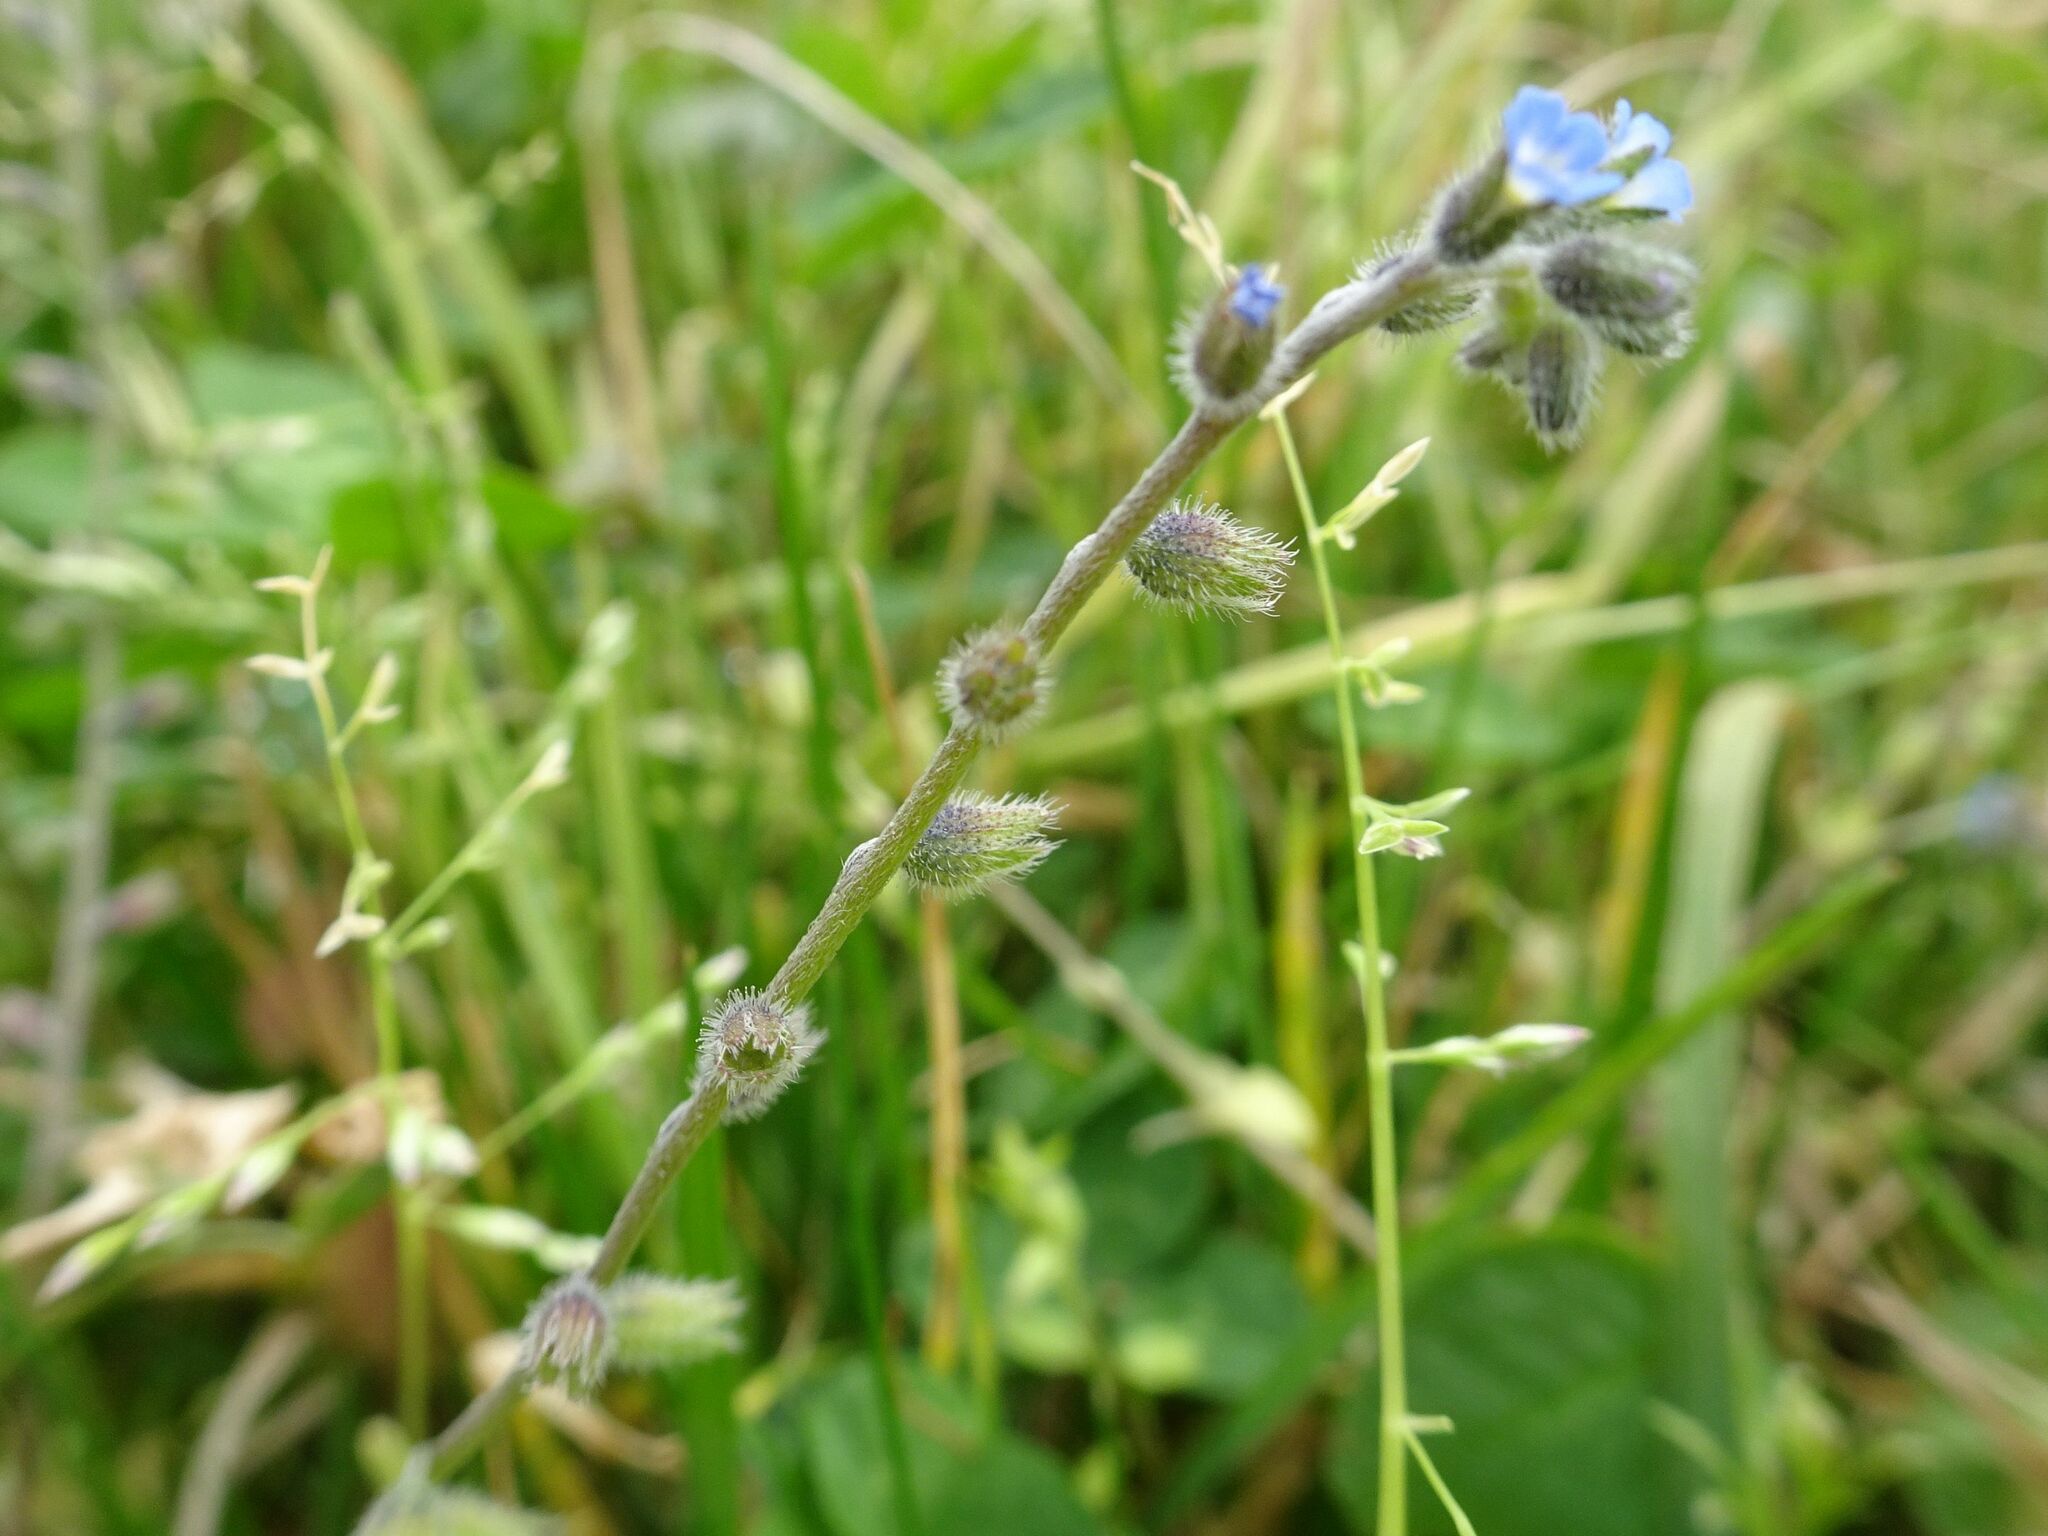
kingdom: Plantae
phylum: Tracheophyta
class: Magnoliopsida
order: Boraginales
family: Boraginaceae
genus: Myosotis
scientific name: Myosotis ramosissima
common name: Early forget-me-not
